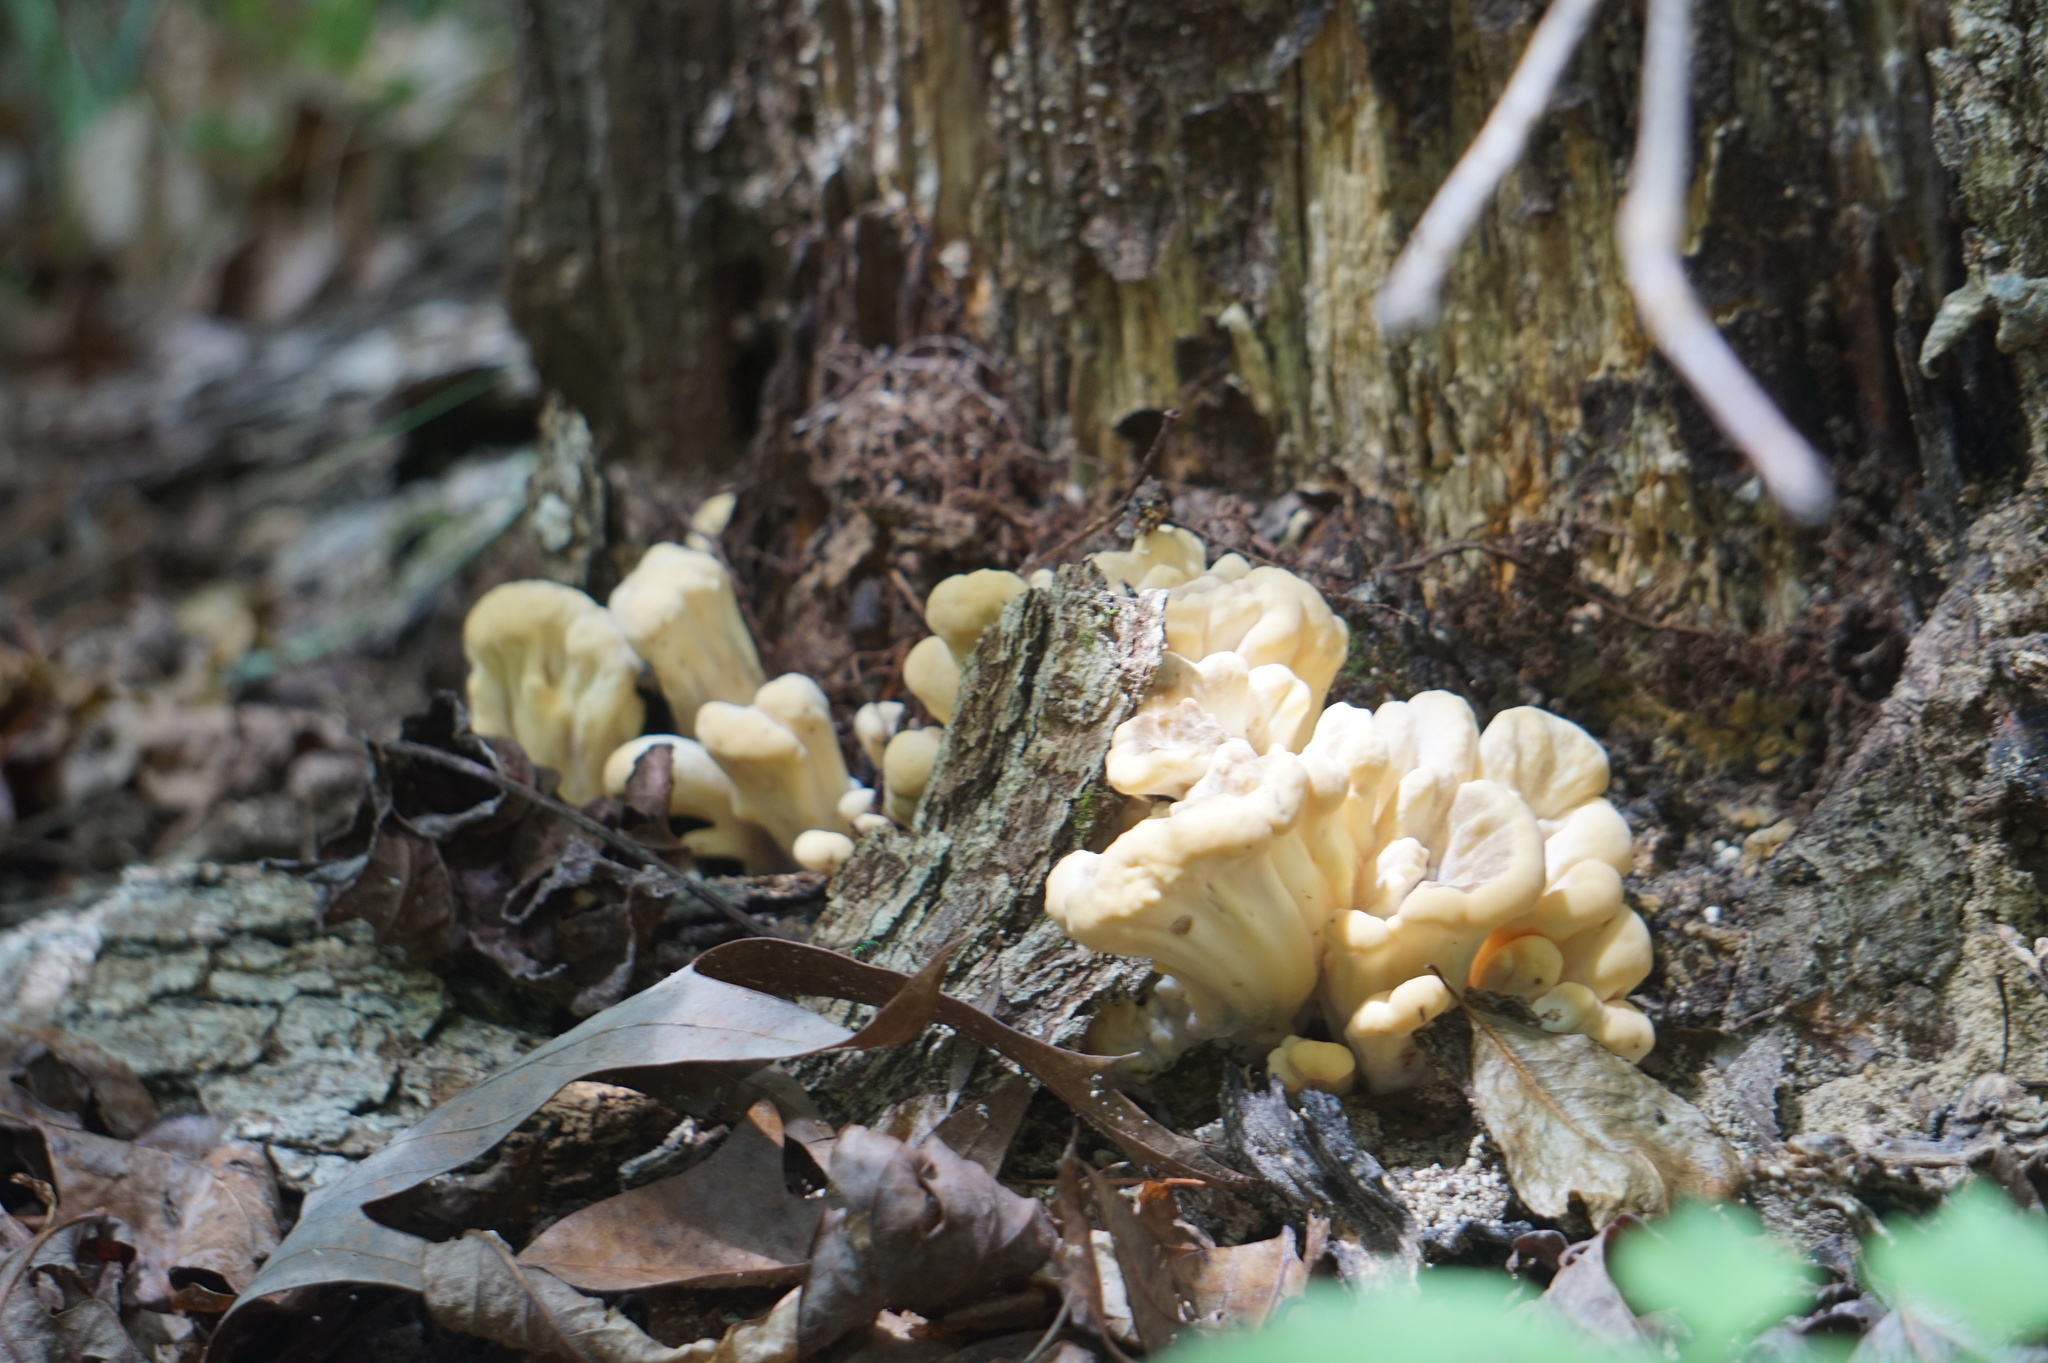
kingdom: Fungi
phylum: Basidiomycota
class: Agaricomycetes
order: Polyporales
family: Meripilaceae
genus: Meripilus
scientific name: Meripilus sumstinei
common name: Black-staining polypore
